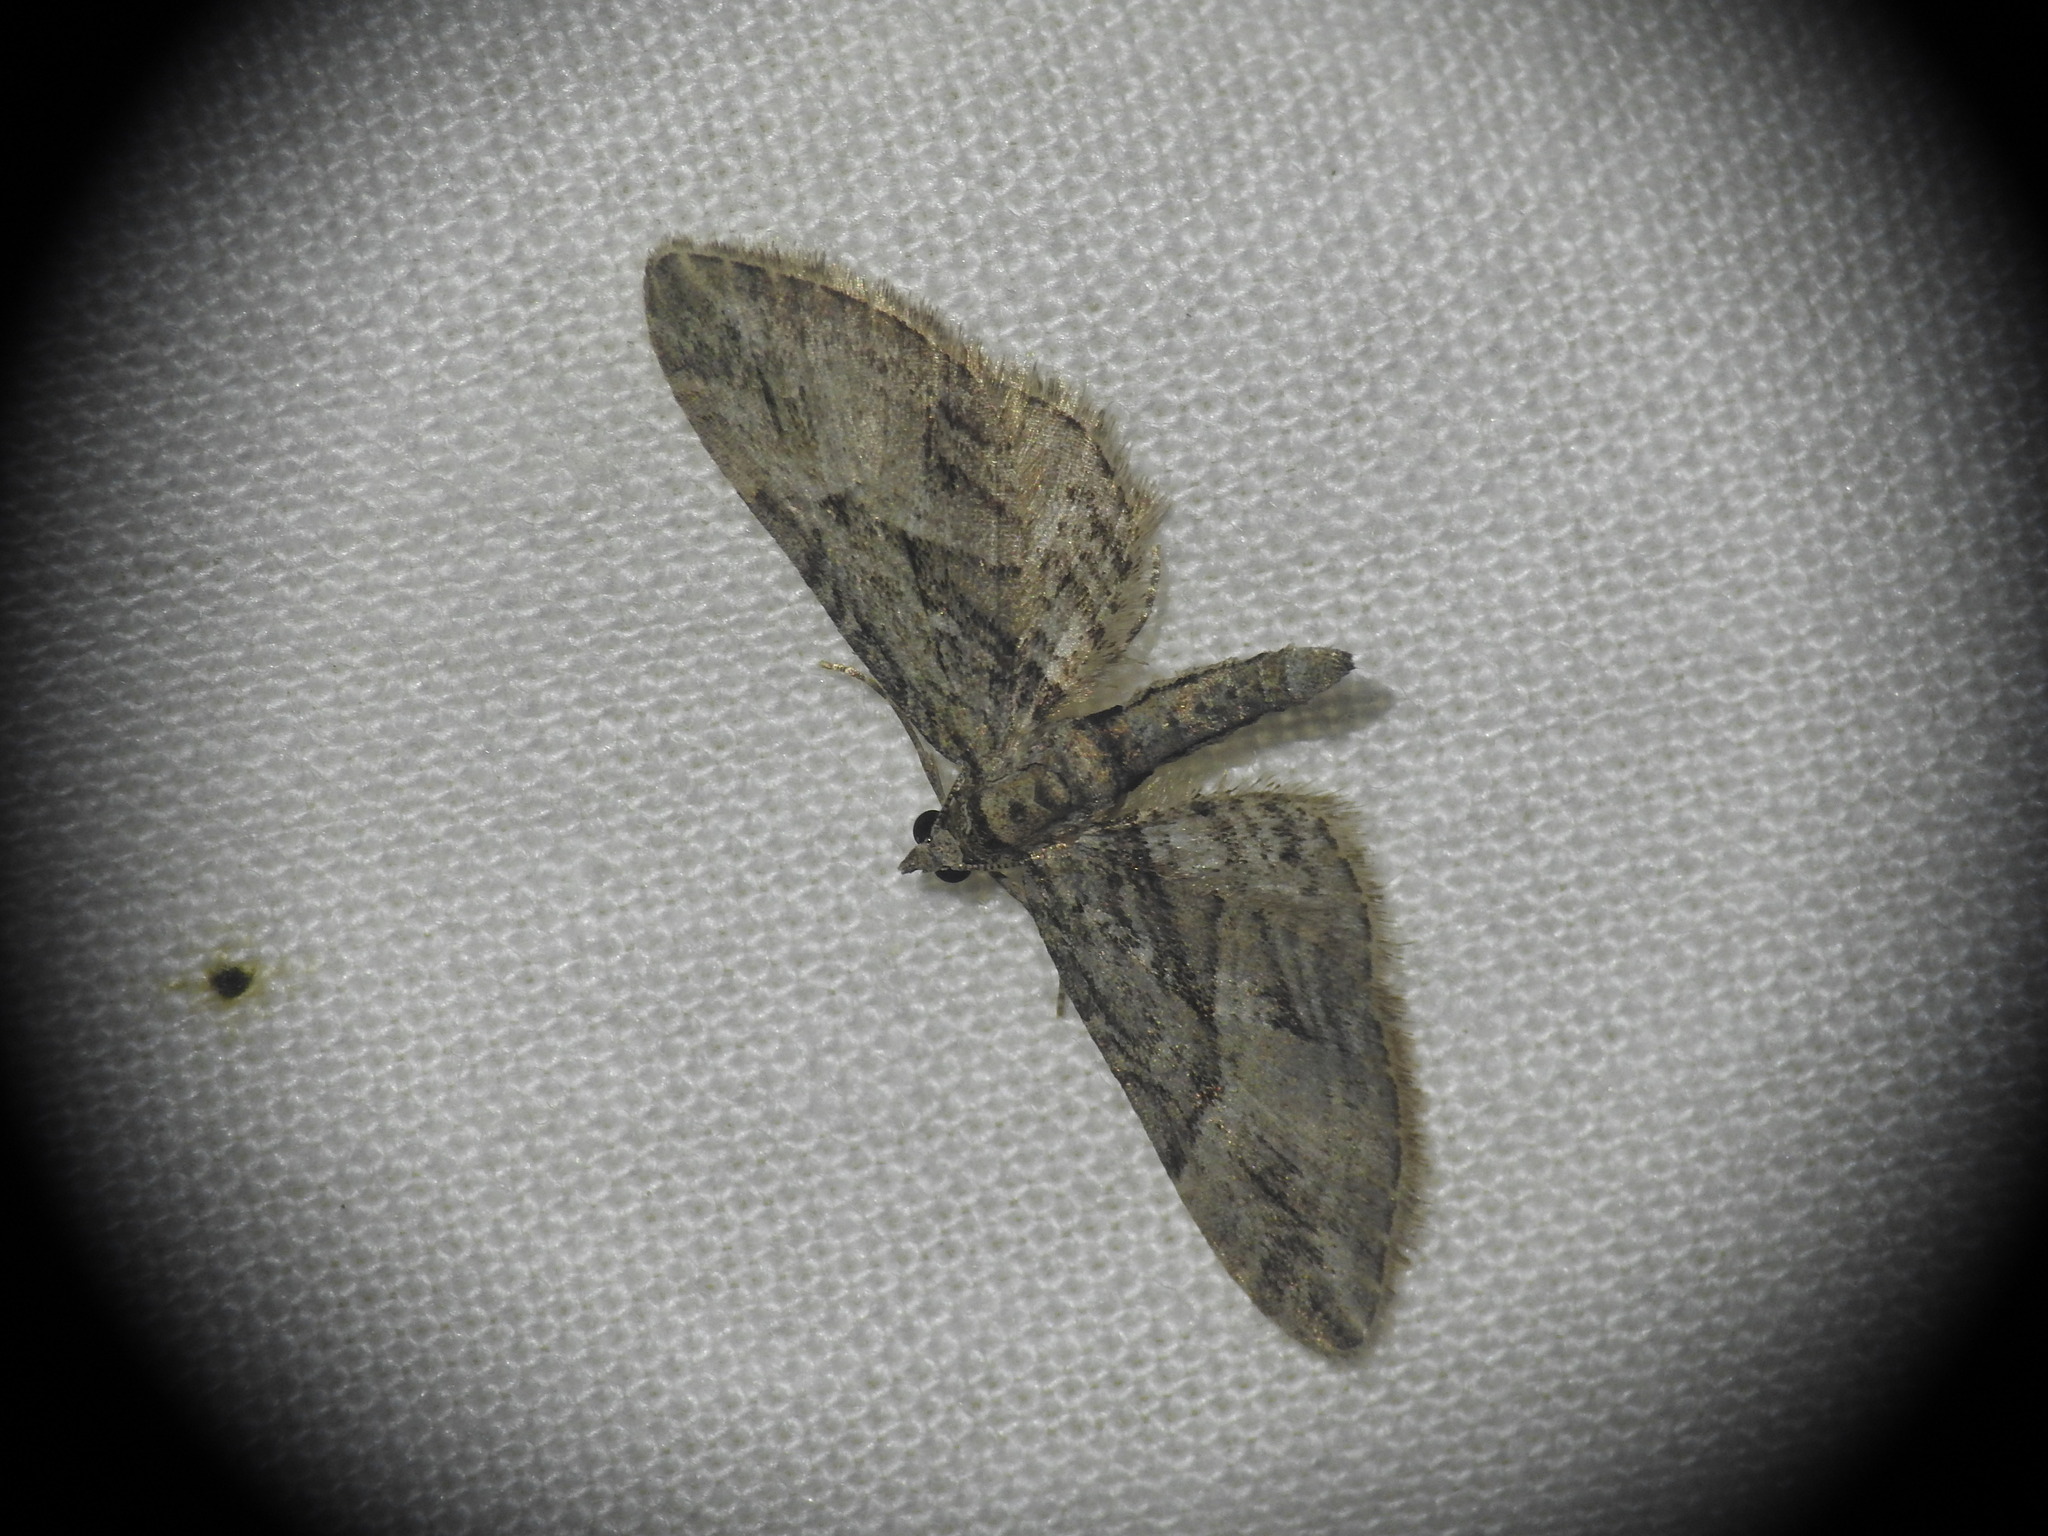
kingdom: Animalia
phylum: Arthropoda
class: Insecta
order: Lepidoptera
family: Geometridae
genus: Eupithecia
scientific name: Eupithecia oxycedrata
